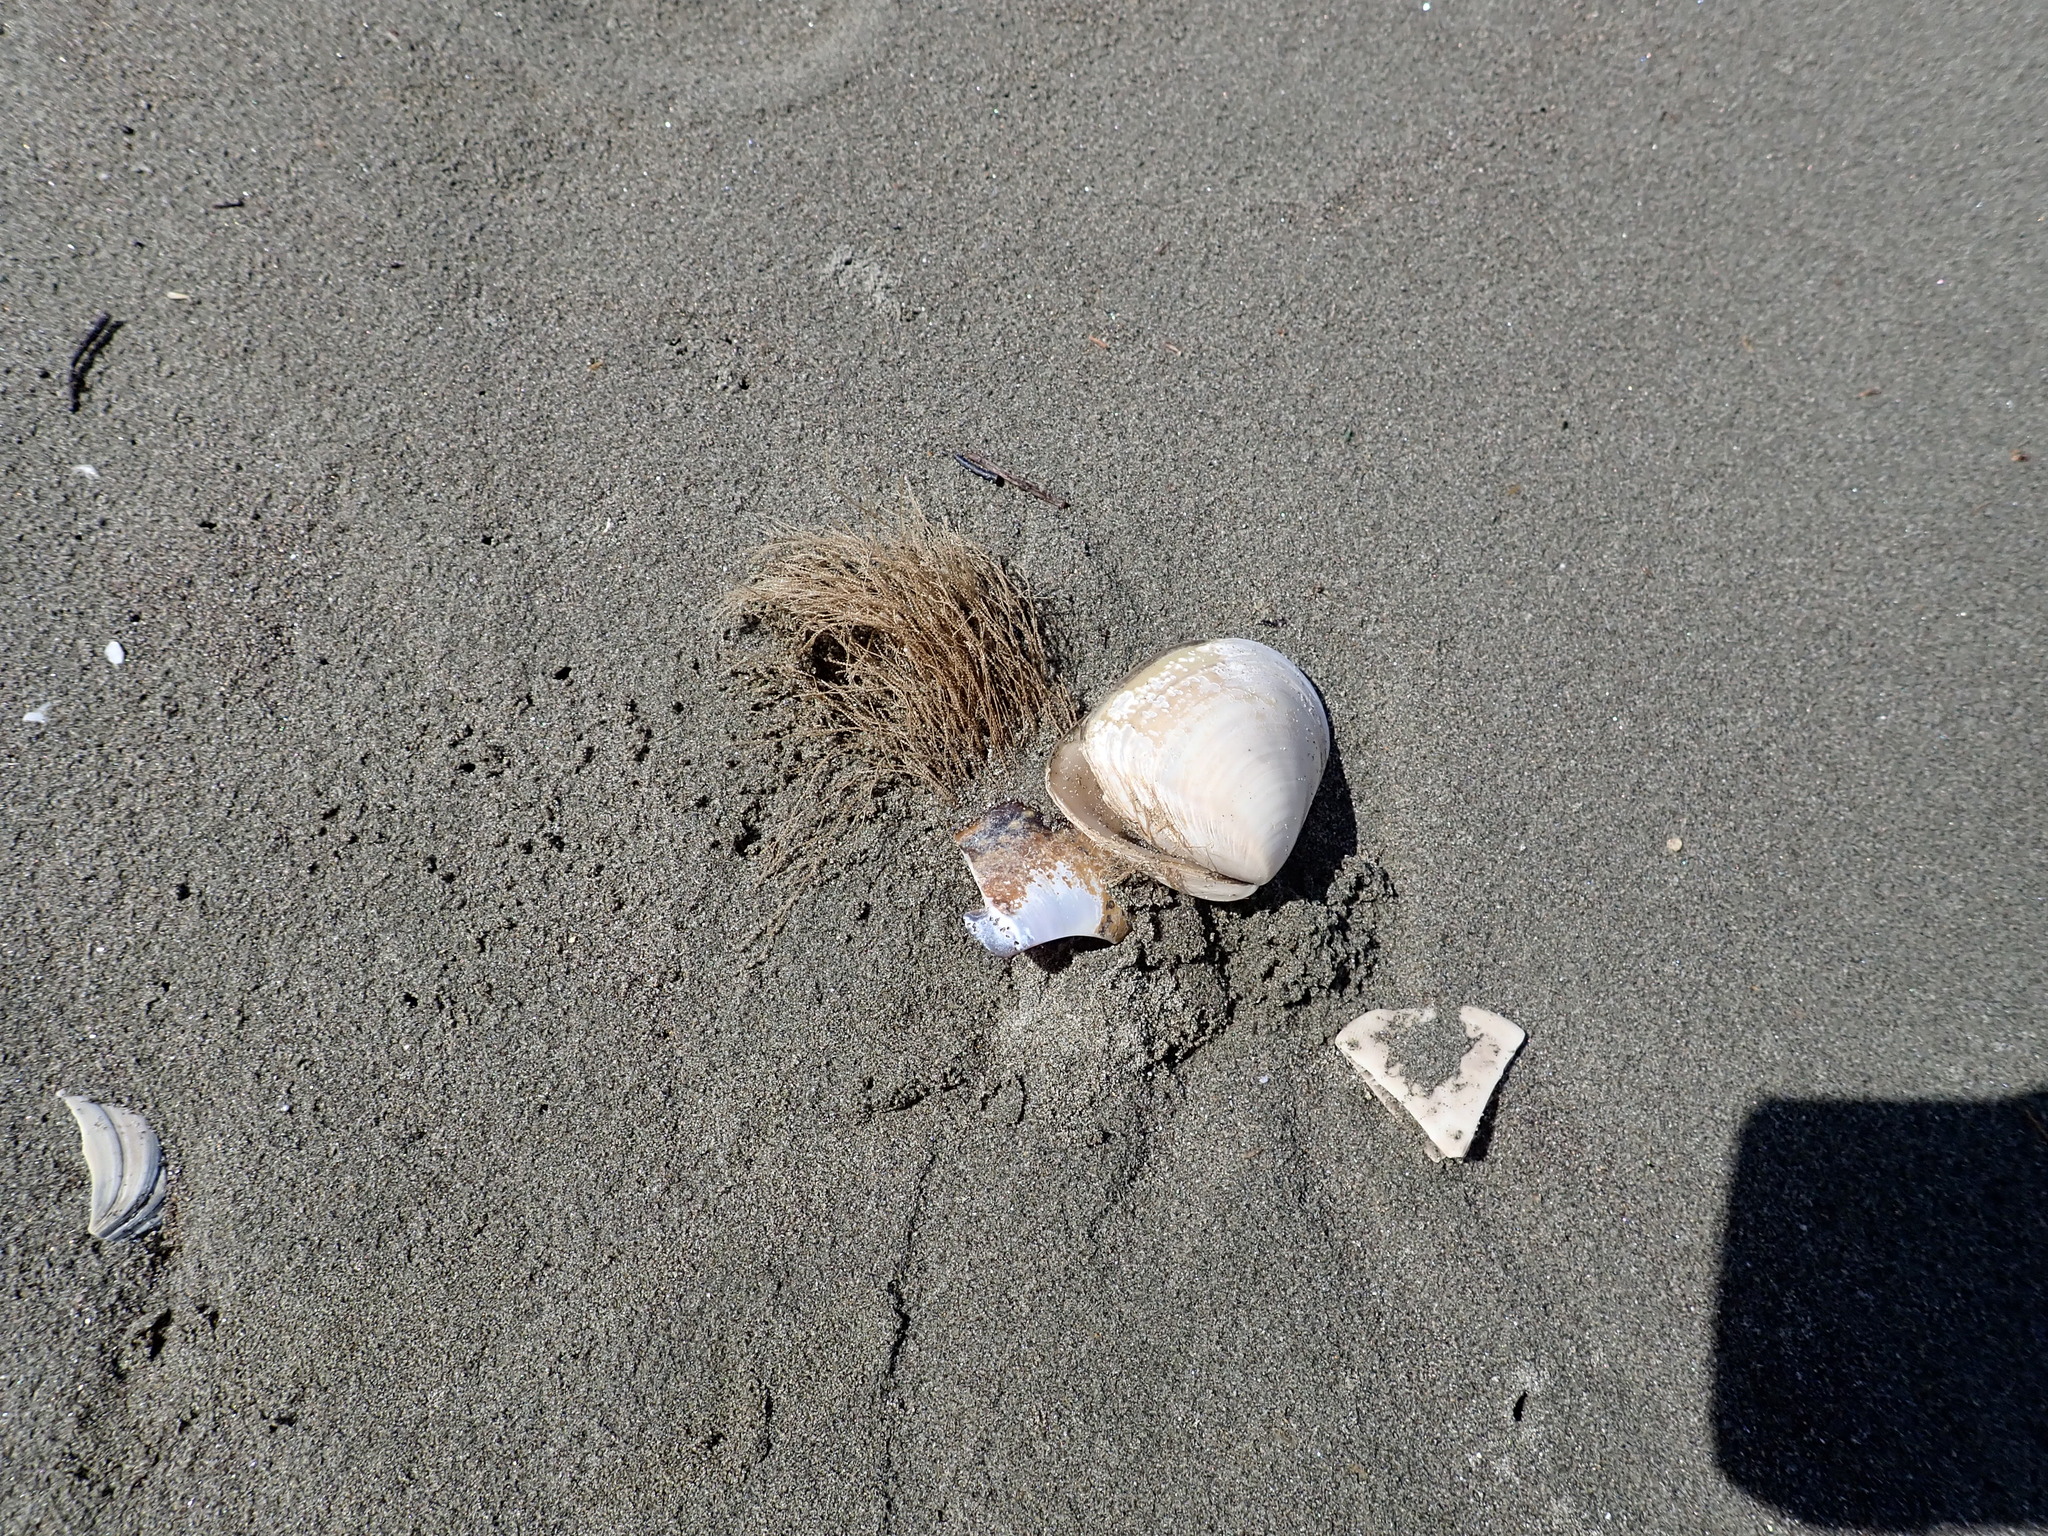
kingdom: Animalia
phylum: Cnidaria
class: Hydrozoa
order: Leptothecata
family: Sertulariidae
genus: Amphisbetia
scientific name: Amphisbetia bispinosa
